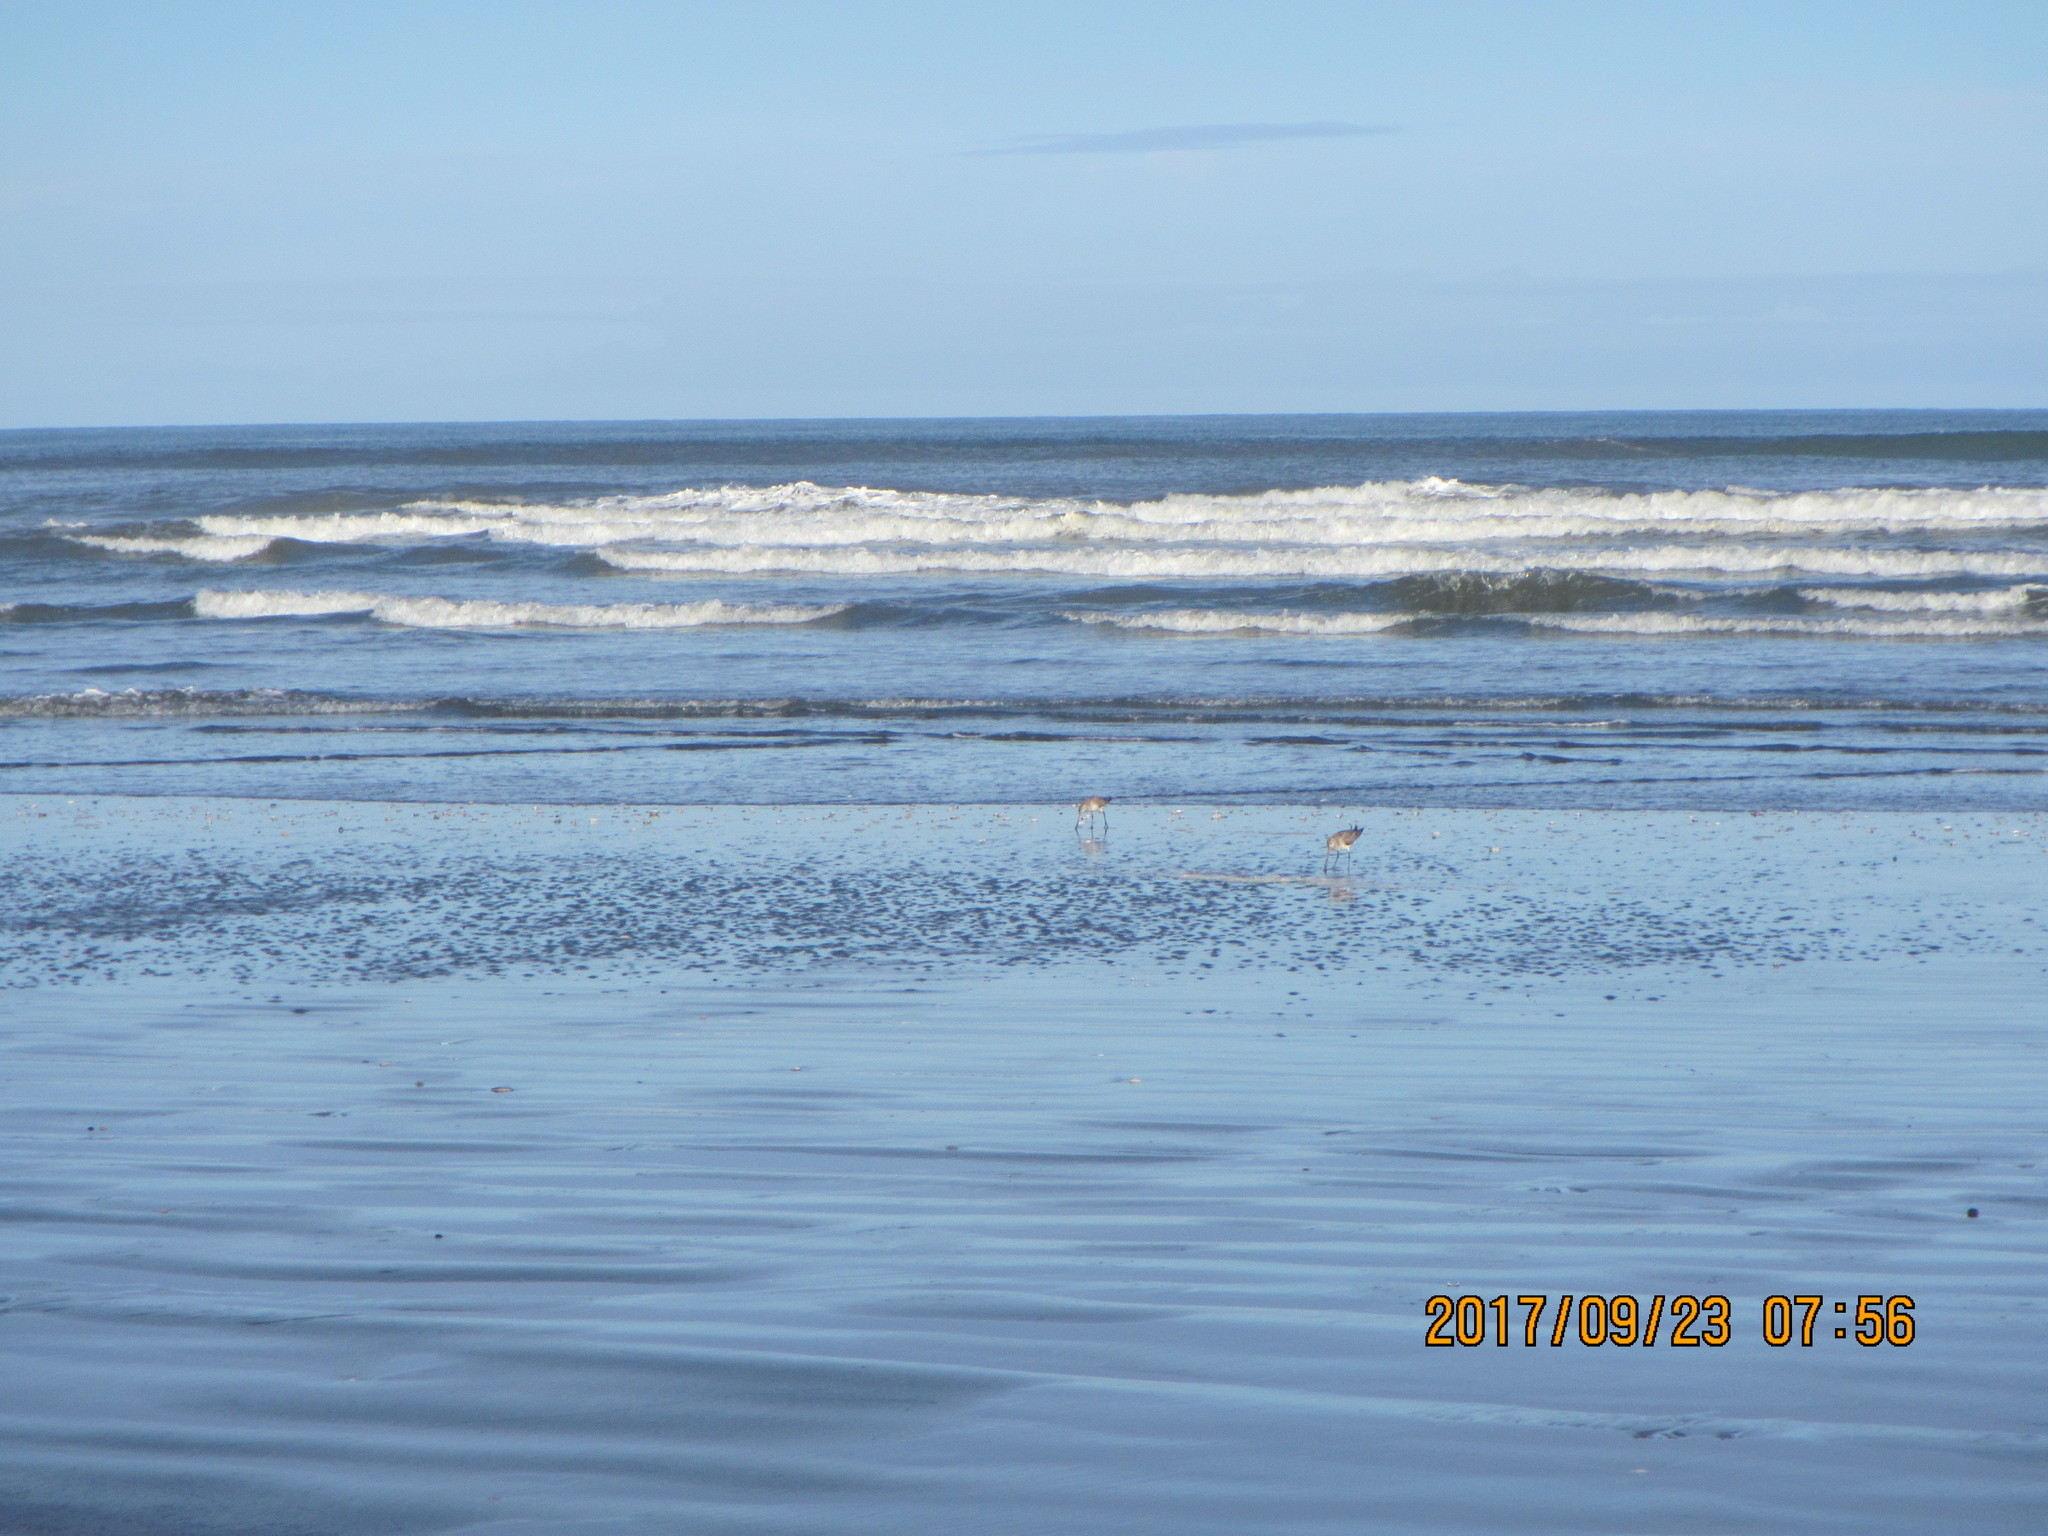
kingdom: Animalia
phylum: Chordata
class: Aves
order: Charadriiformes
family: Scolopacidae
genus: Limosa
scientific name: Limosa lapponica
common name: Bar-tailed godwit
